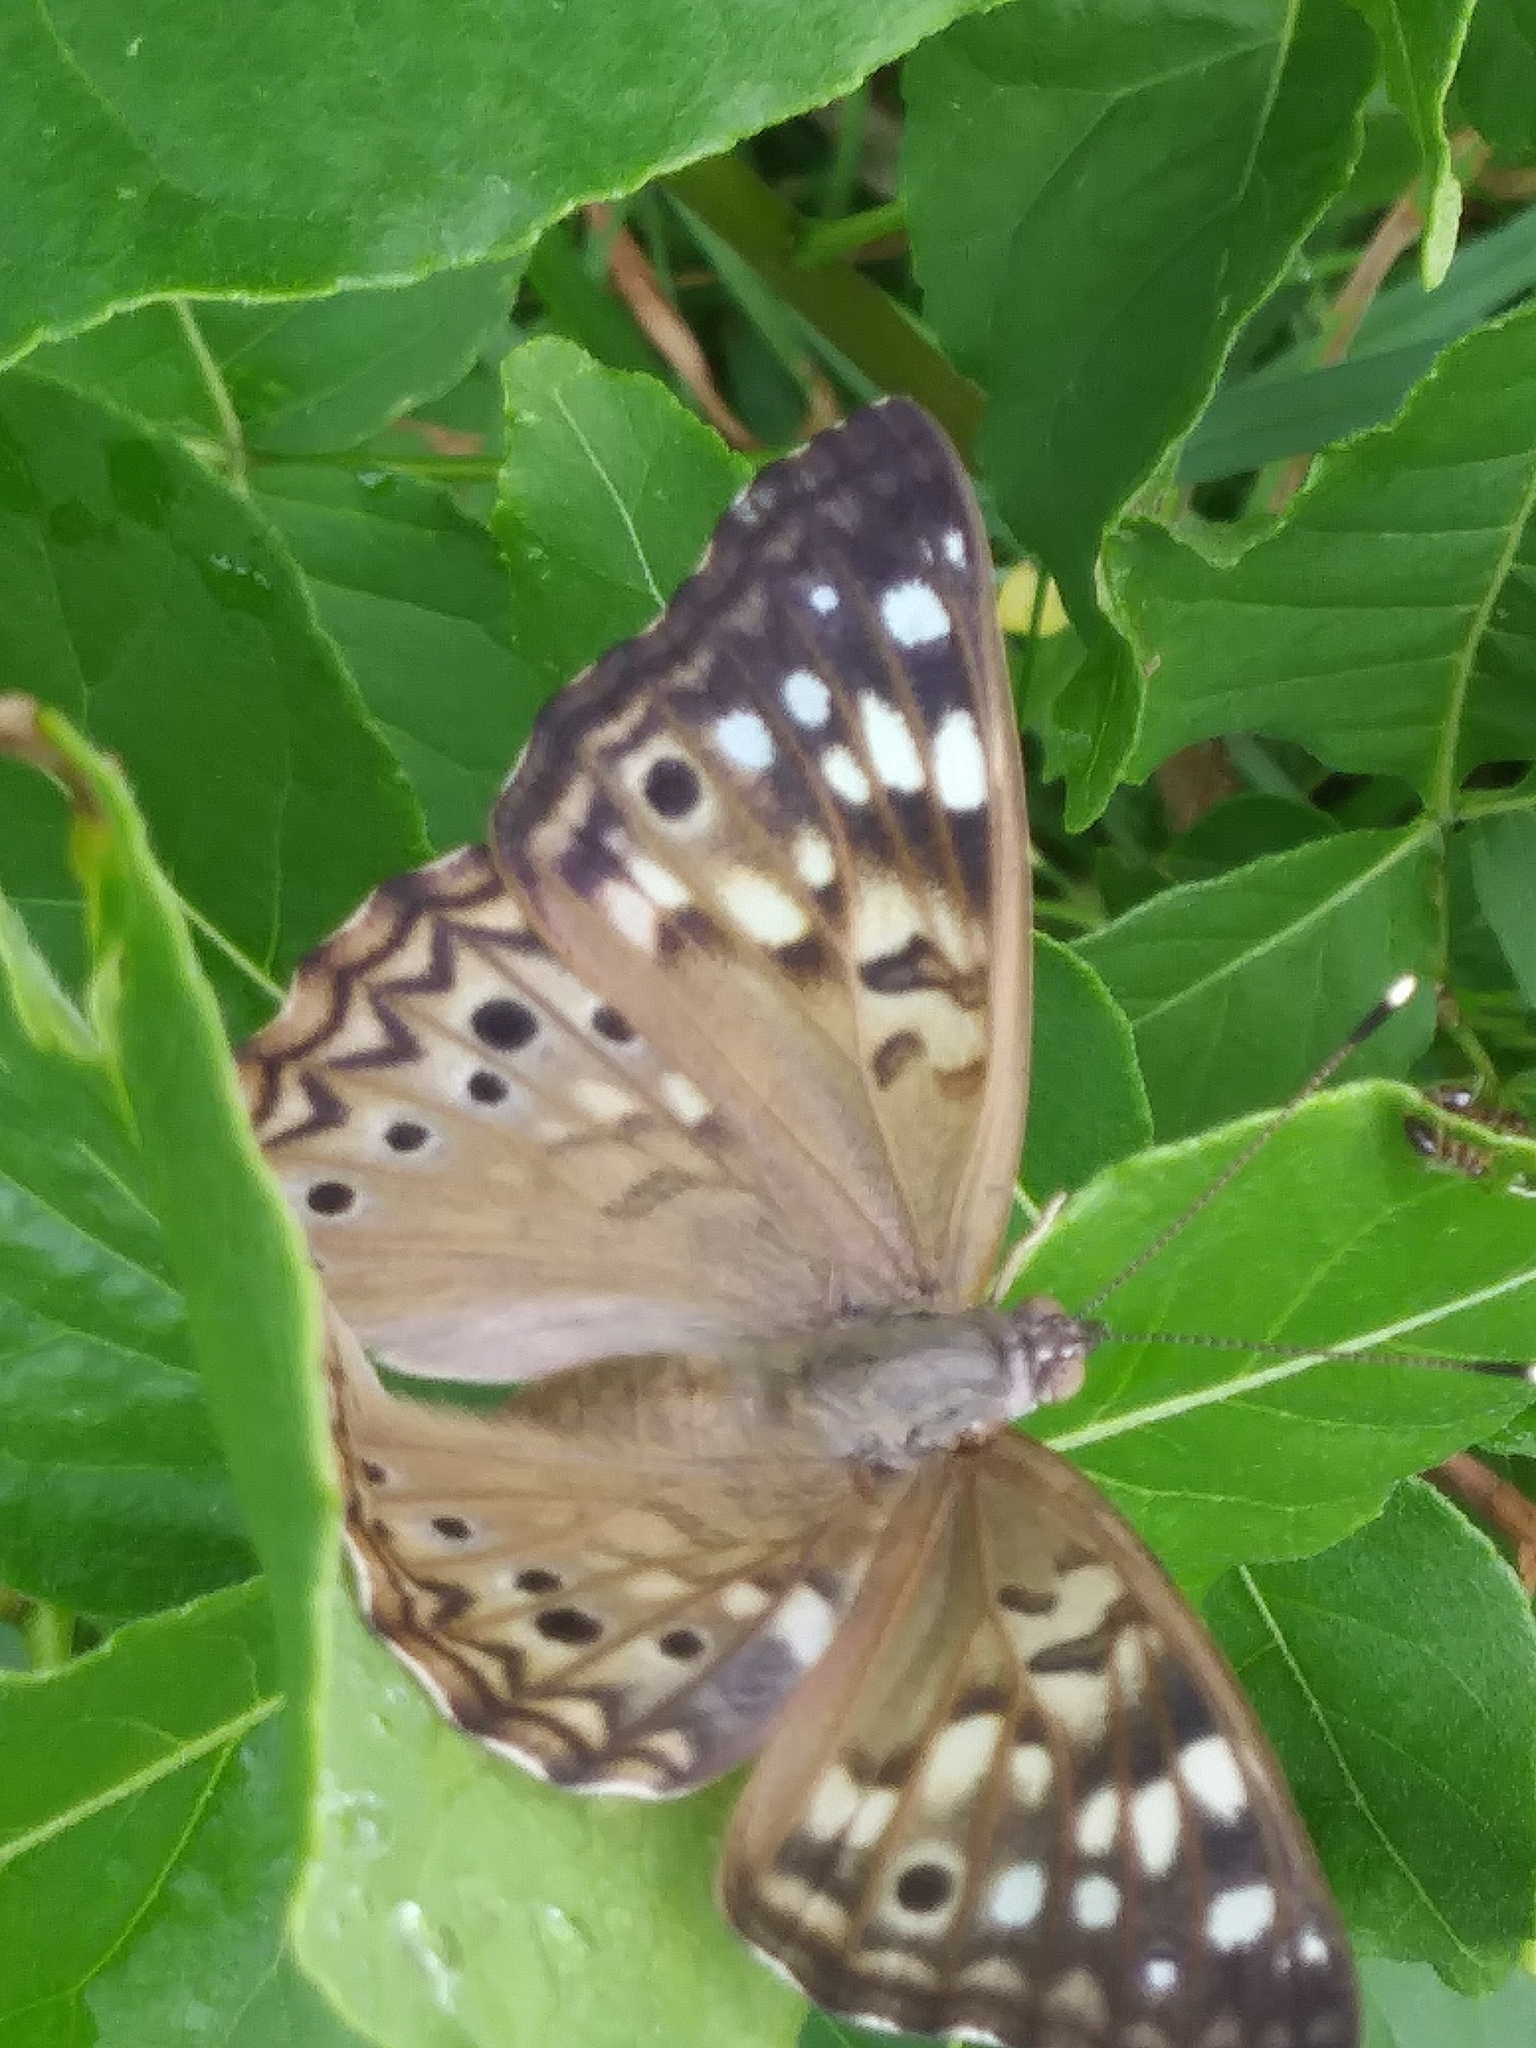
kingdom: Animalia
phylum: Arthropoda
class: Insecta
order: Lepidoptera
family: Nymphalidae
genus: Asterocampa
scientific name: Asterocampa celtis
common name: Hackberry emperor
